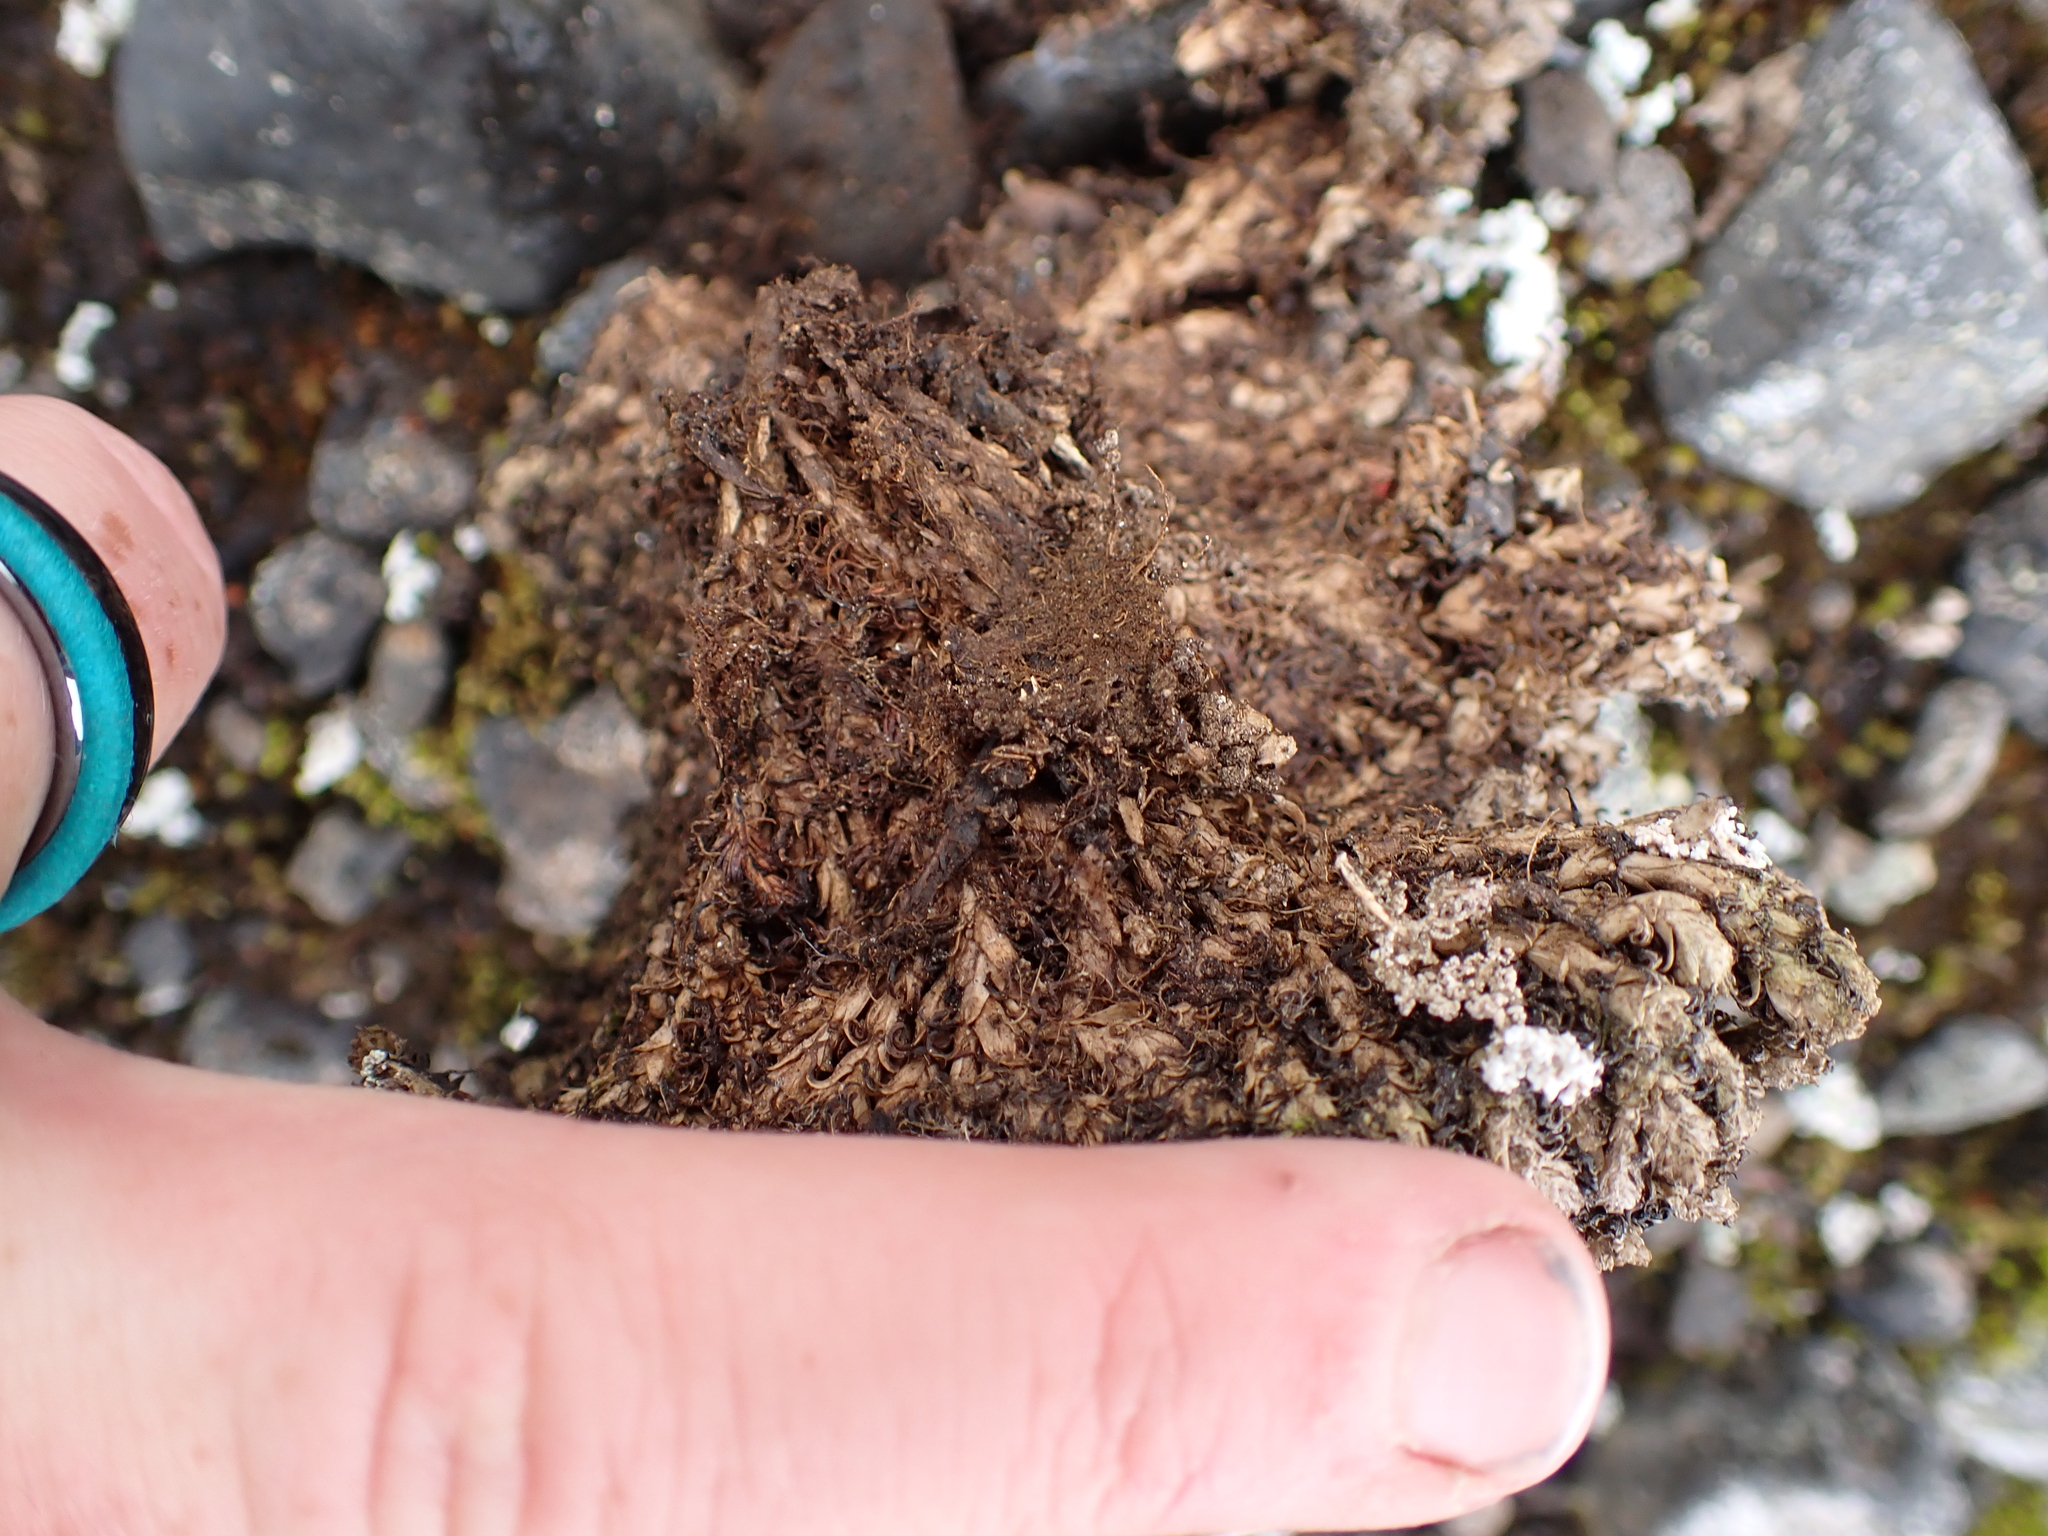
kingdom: Plantae
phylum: Tracheophyta
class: Magnoliopsida
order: Saxifragales
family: Saxifragaceae
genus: Saxifraga
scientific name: Saxifraga oppositifolia
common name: Purple saxifrage
